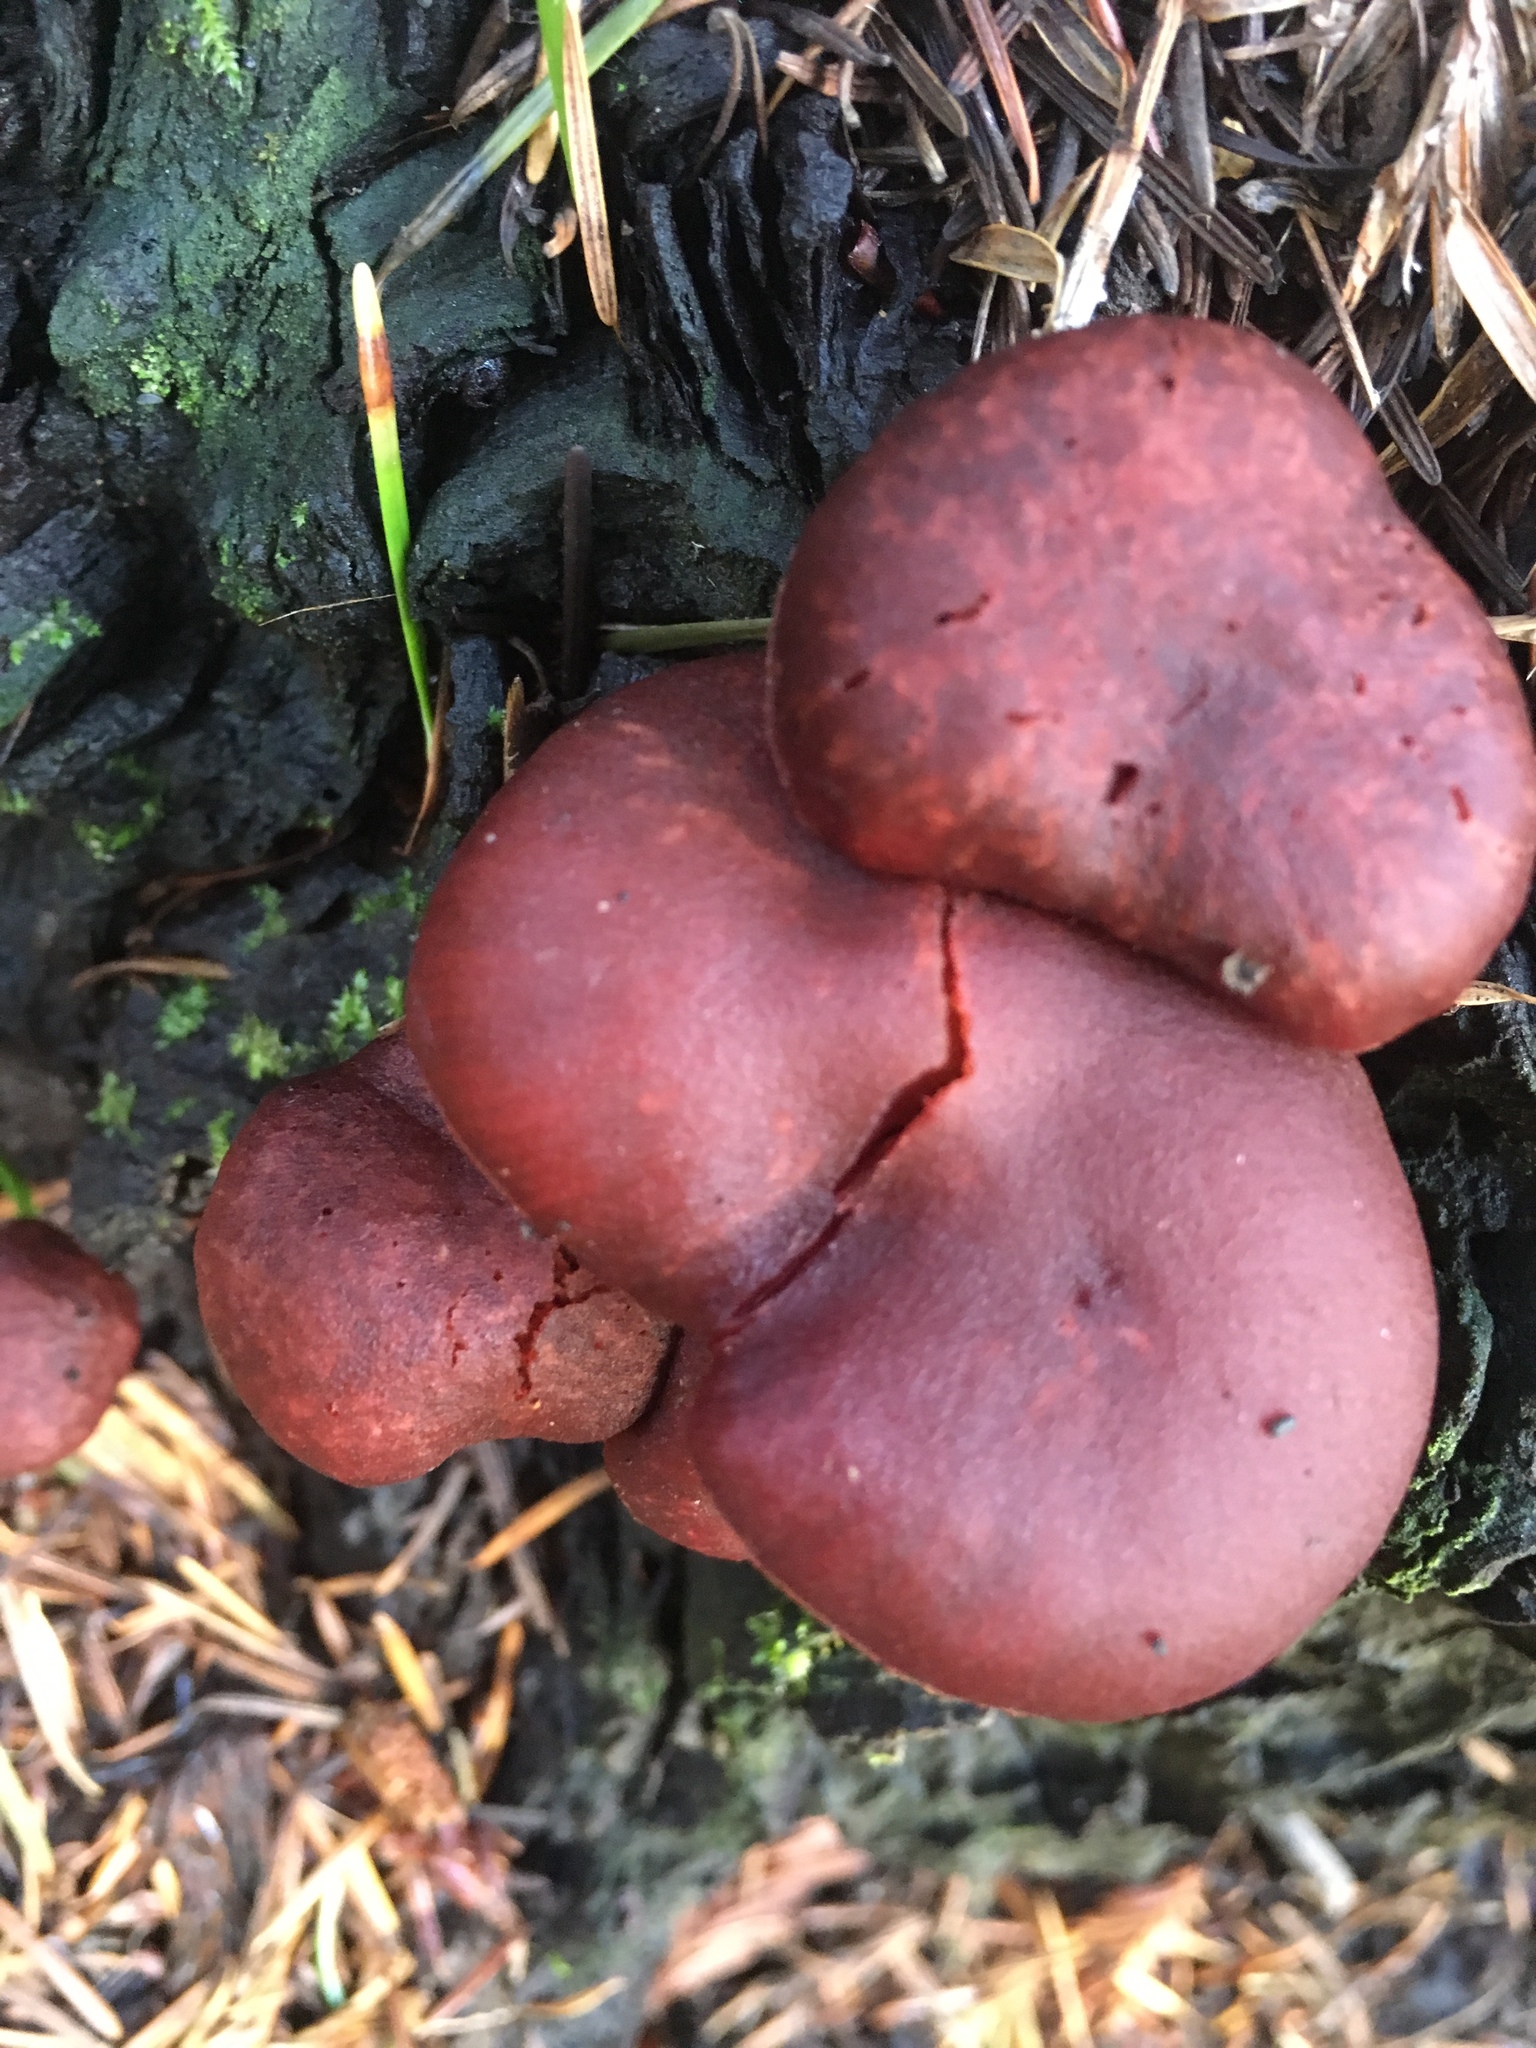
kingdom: Fungi
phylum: Basidiomycota
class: Agaricomycetes
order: Agaricales
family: Tubariaceae
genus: Tubaria
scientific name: Tubaria punicea
